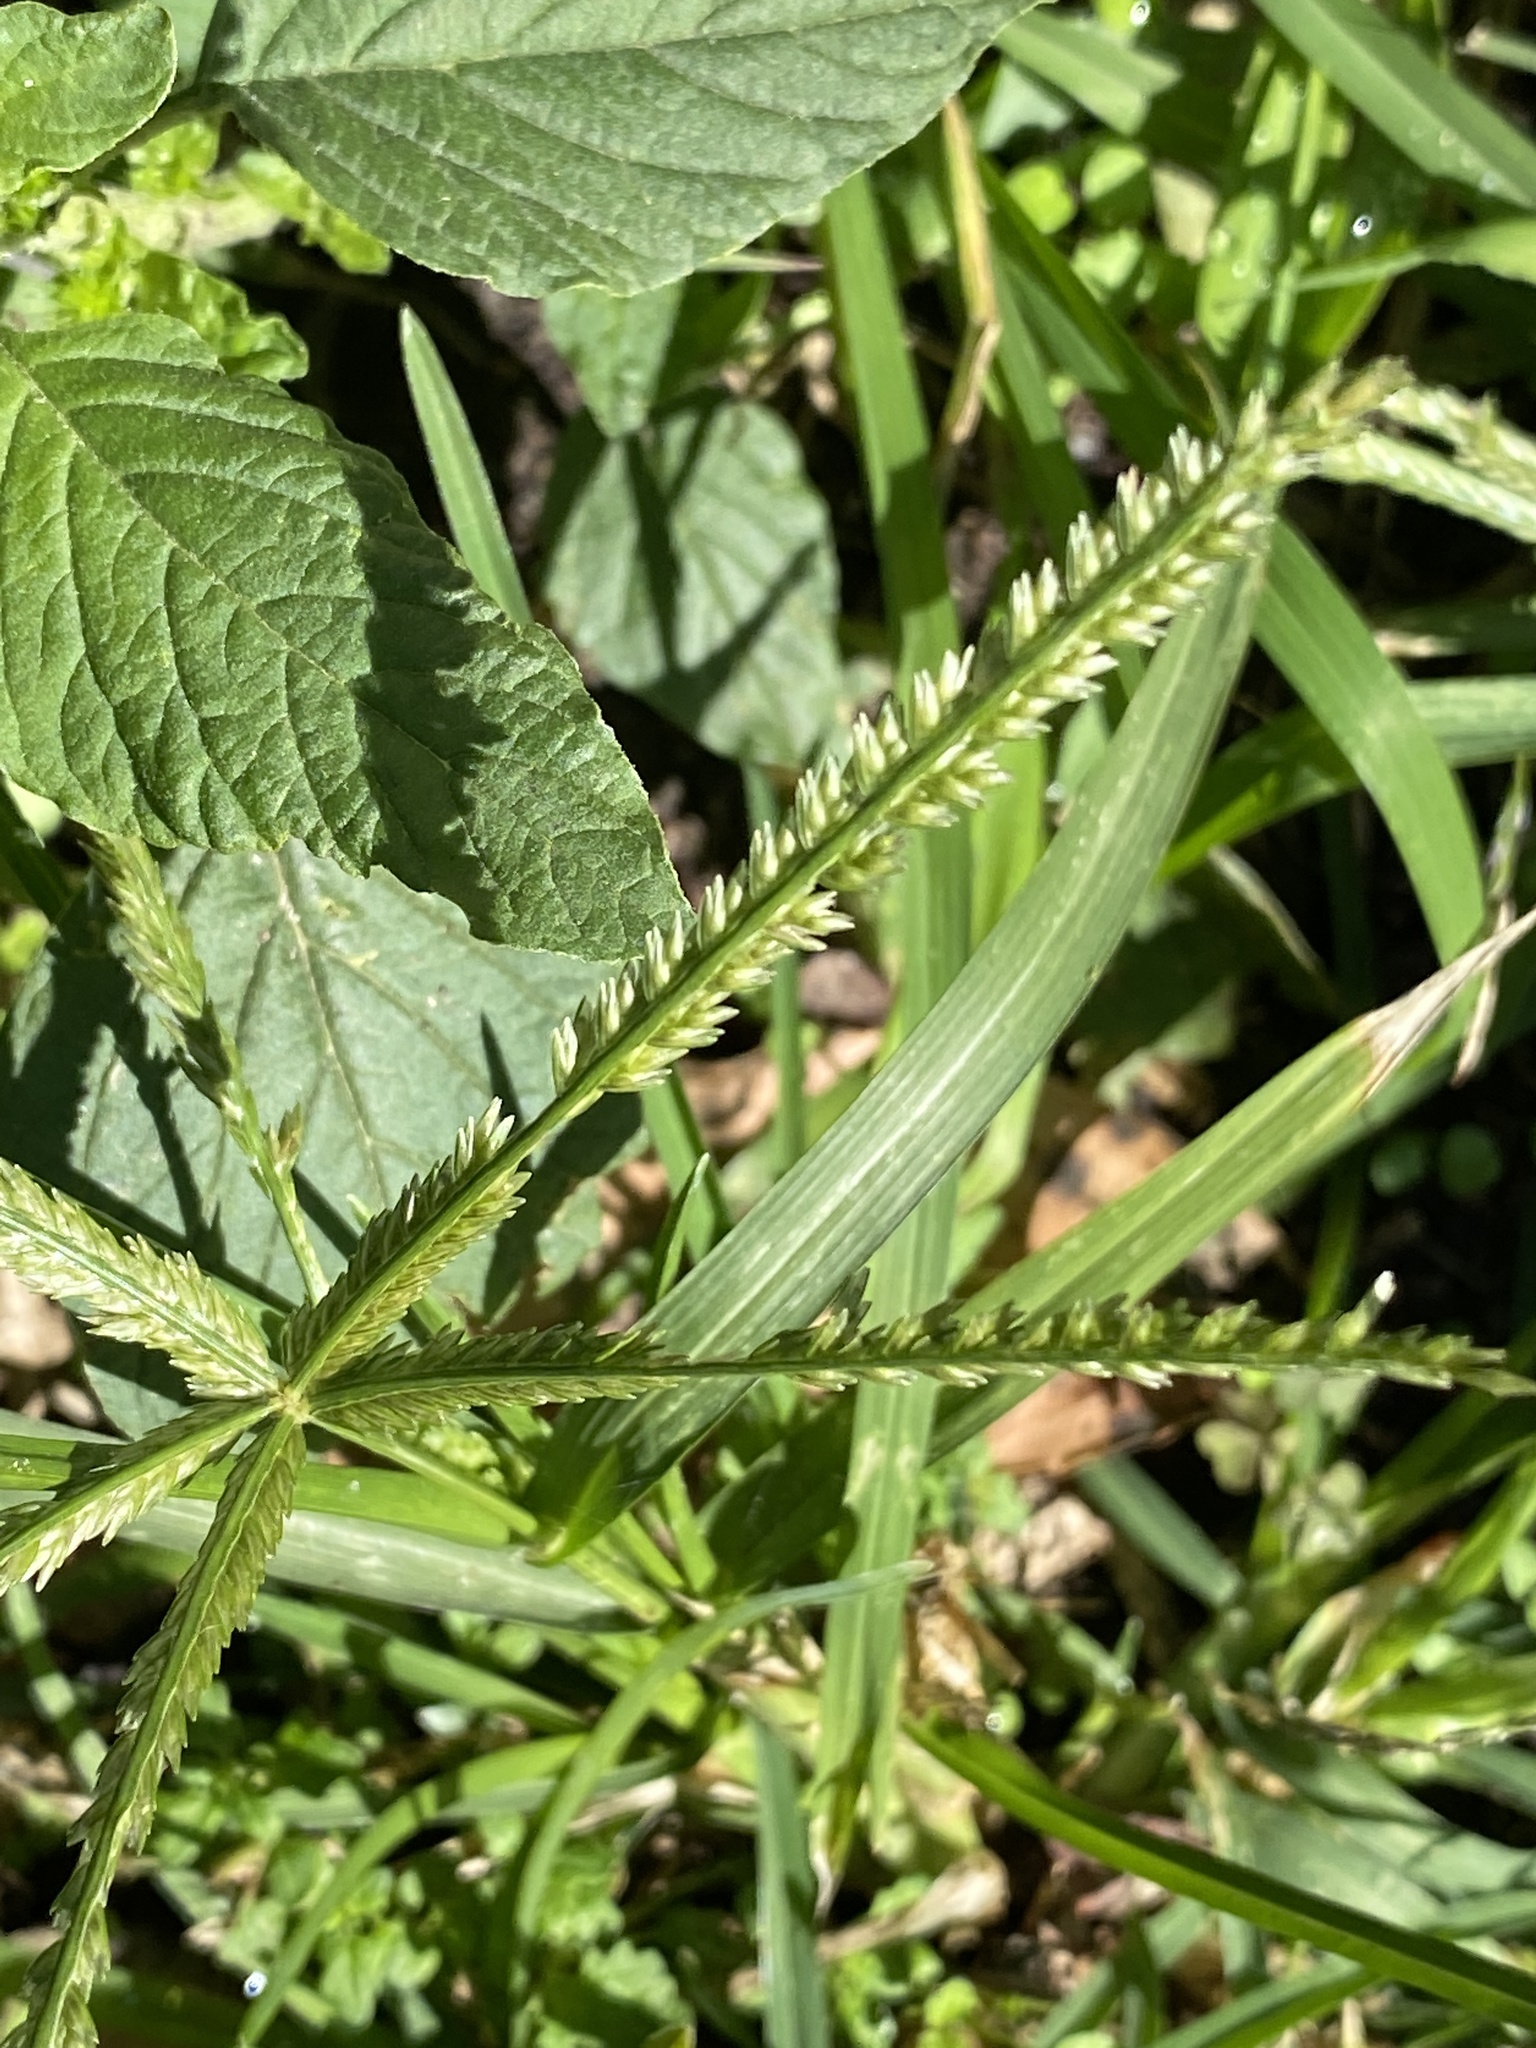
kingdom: Plantae
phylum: Tracheophyta
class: Liliopsida
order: Poales
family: Poaceae
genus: Eleusine
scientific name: Eleusine indica
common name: Yard-grass
